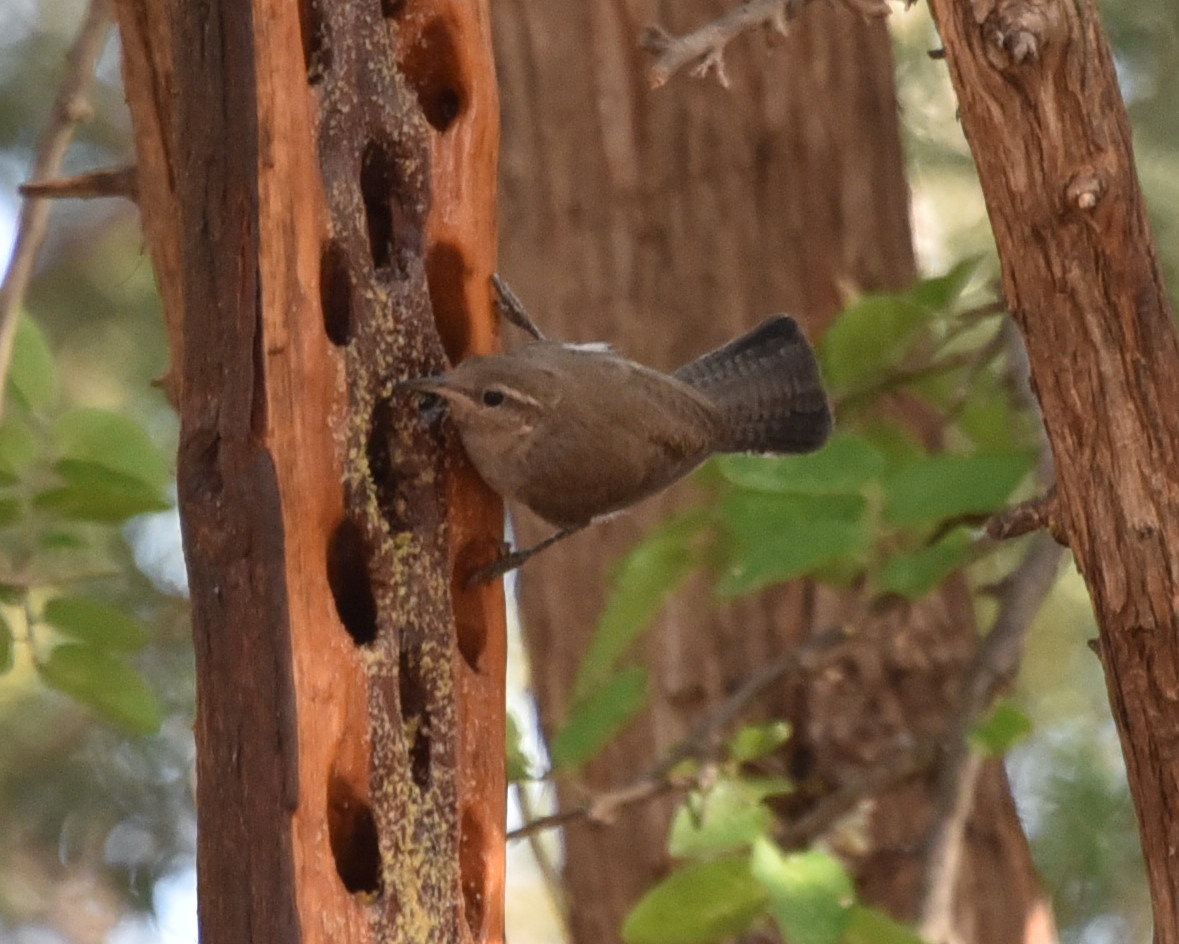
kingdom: Animalia
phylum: Chordata
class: Aves
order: Passeriformes
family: Troglodytidae
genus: Thryomanes
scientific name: Thryomanes bewickii
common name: Bewick's wren
